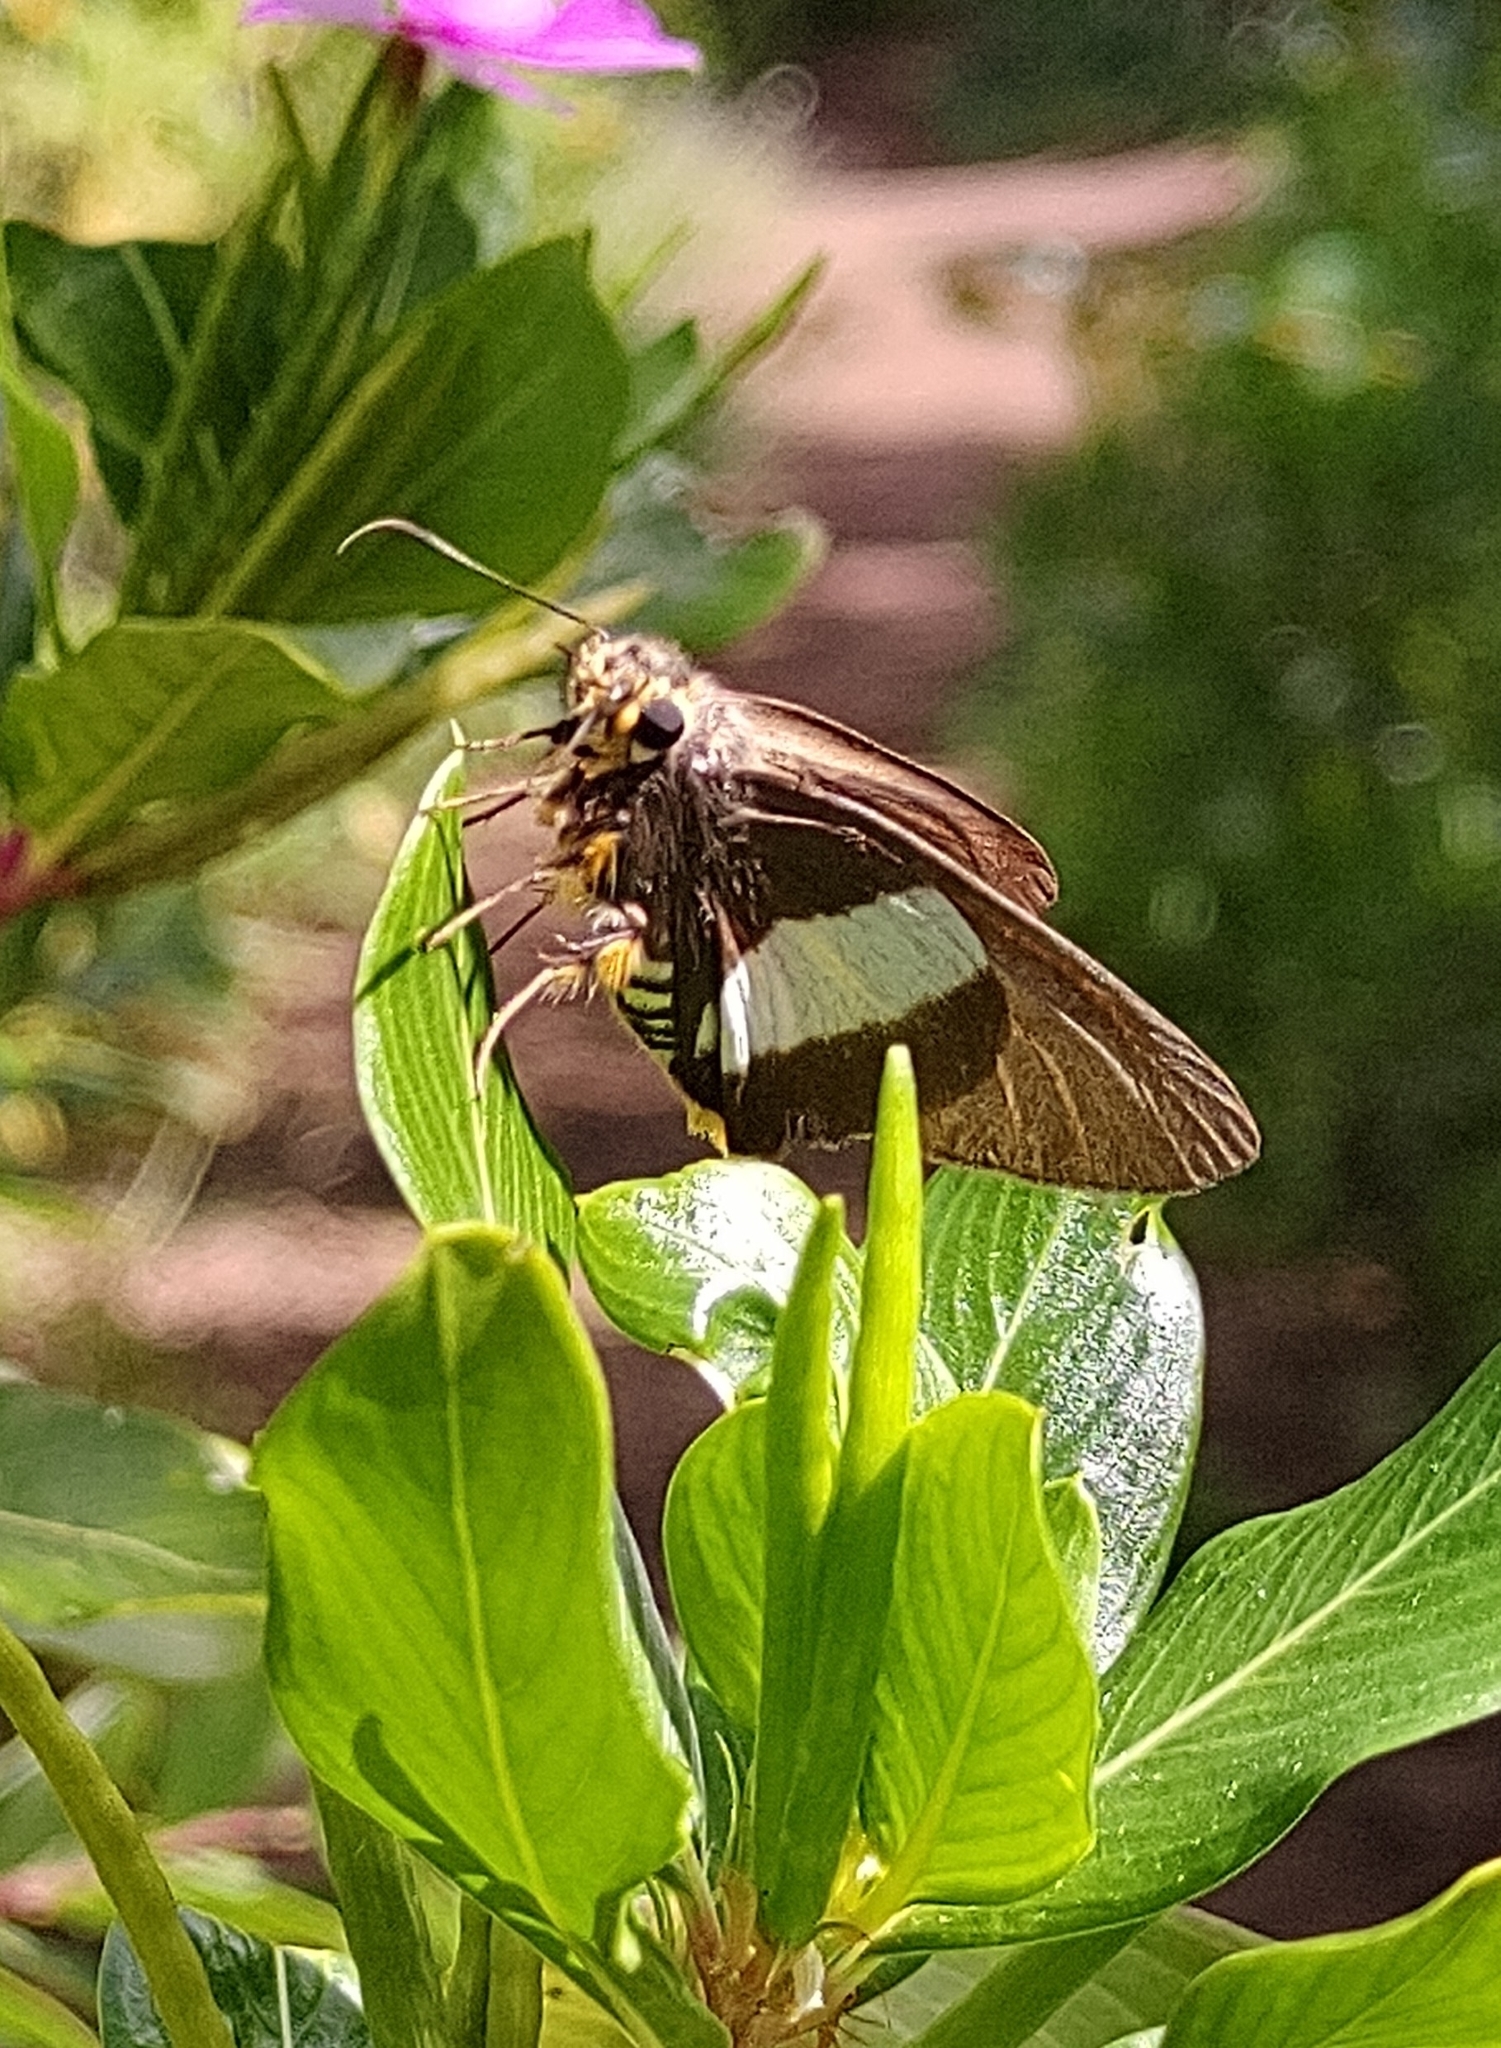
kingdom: Animalia
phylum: Arthropoda
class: Insecta
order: Lepidoptera
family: Hesperiidae
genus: Coeliades
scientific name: Coeliades forestan
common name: Striped policeman
